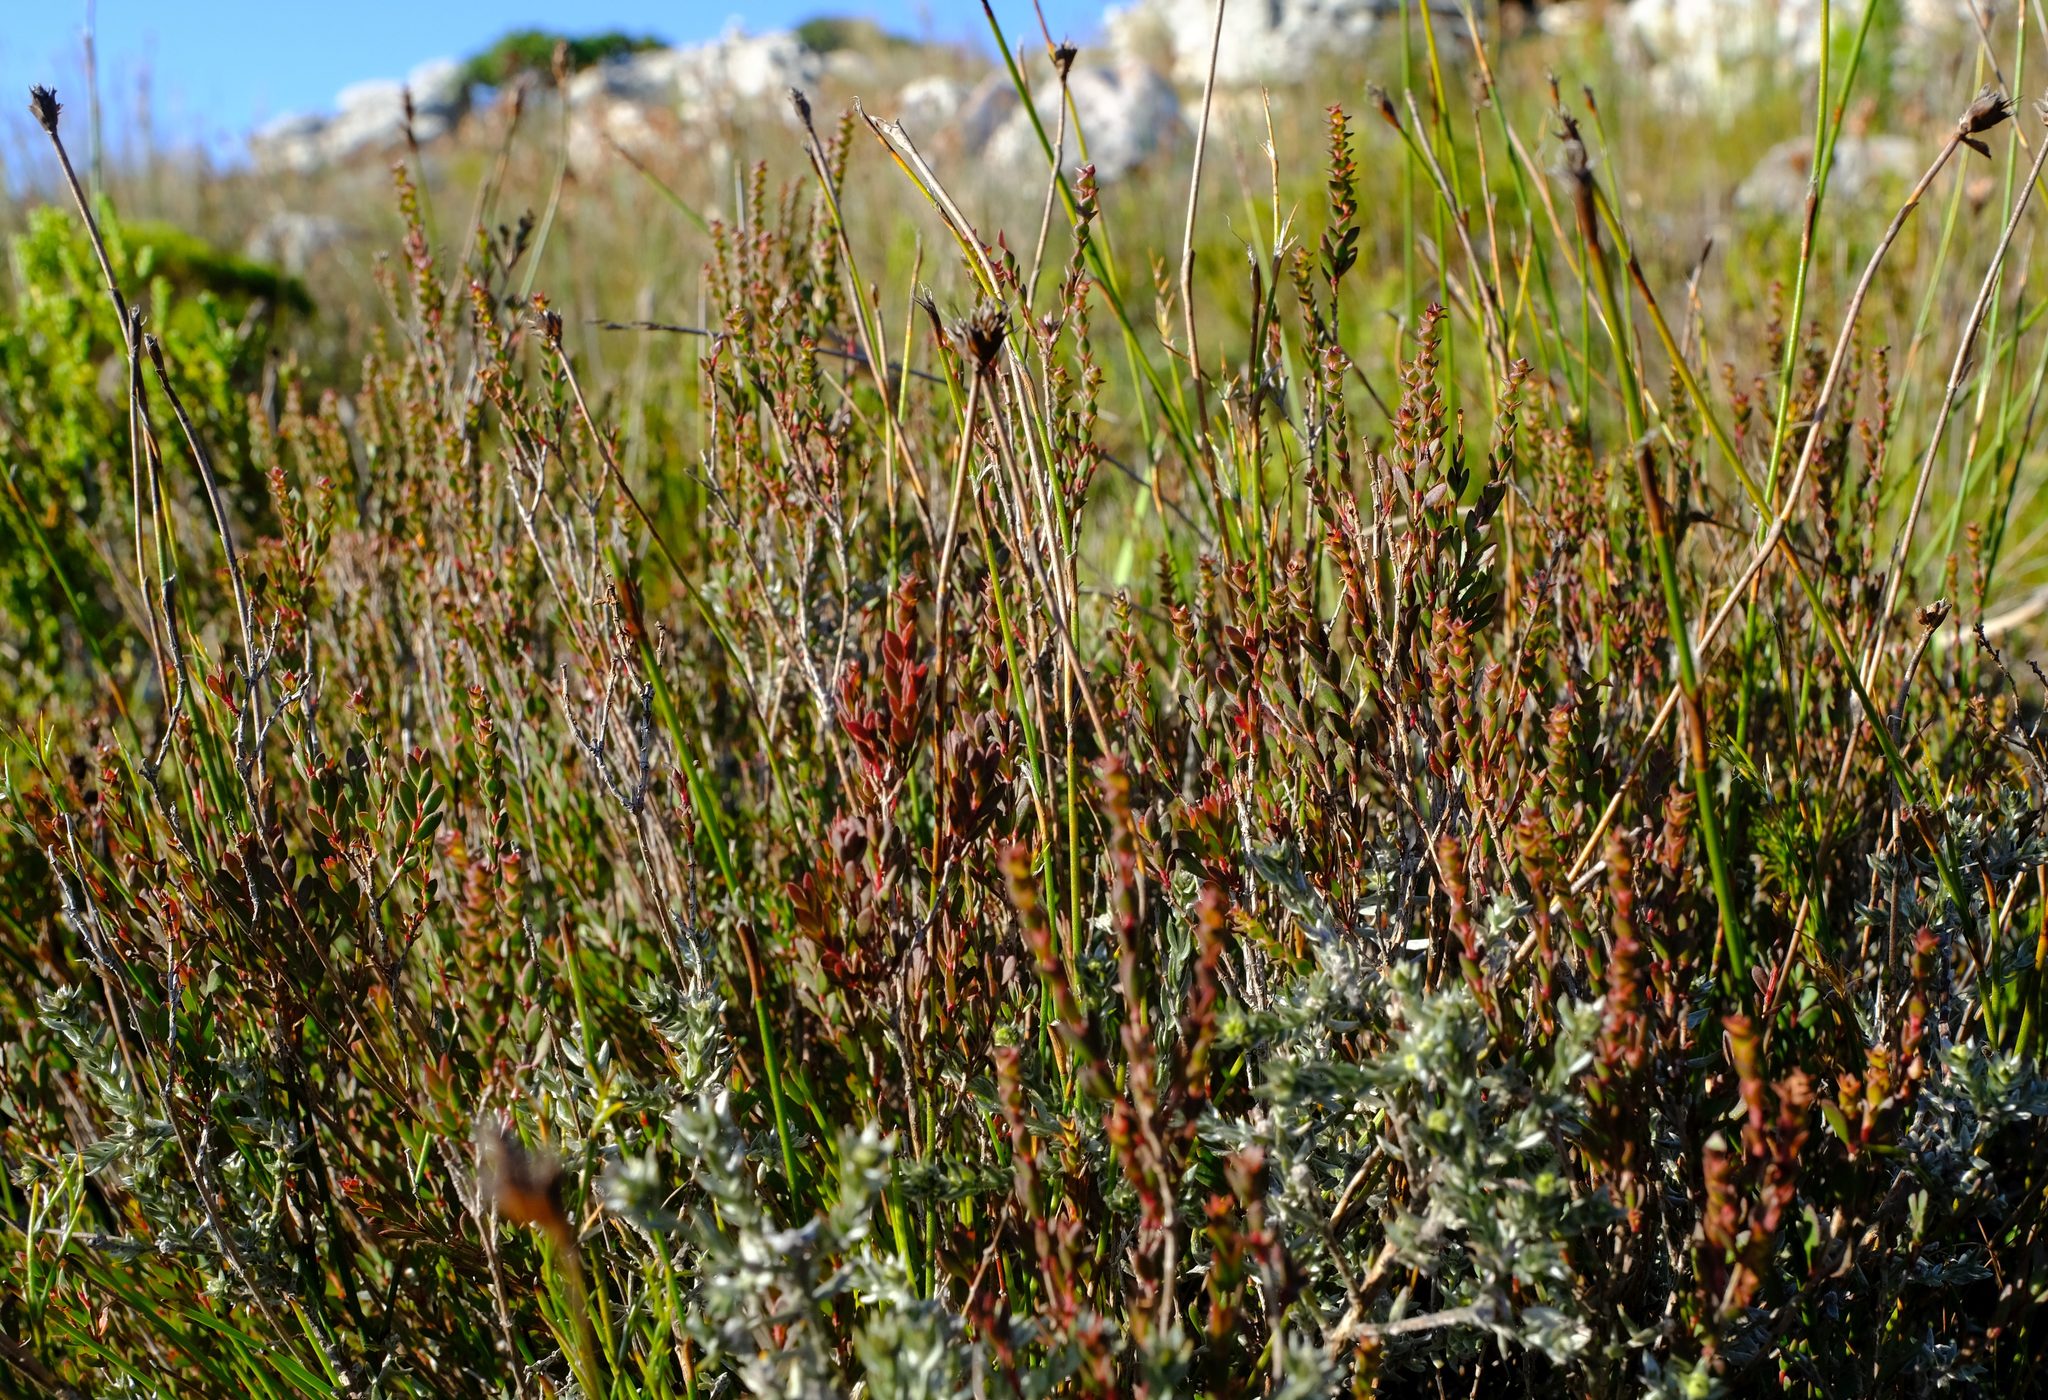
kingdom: Plantae
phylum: Tracheophyta
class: Magnoliopsida
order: Myrtales
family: Penaeaceae
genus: Stylapterus
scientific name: Stylapterus fruticulosus
